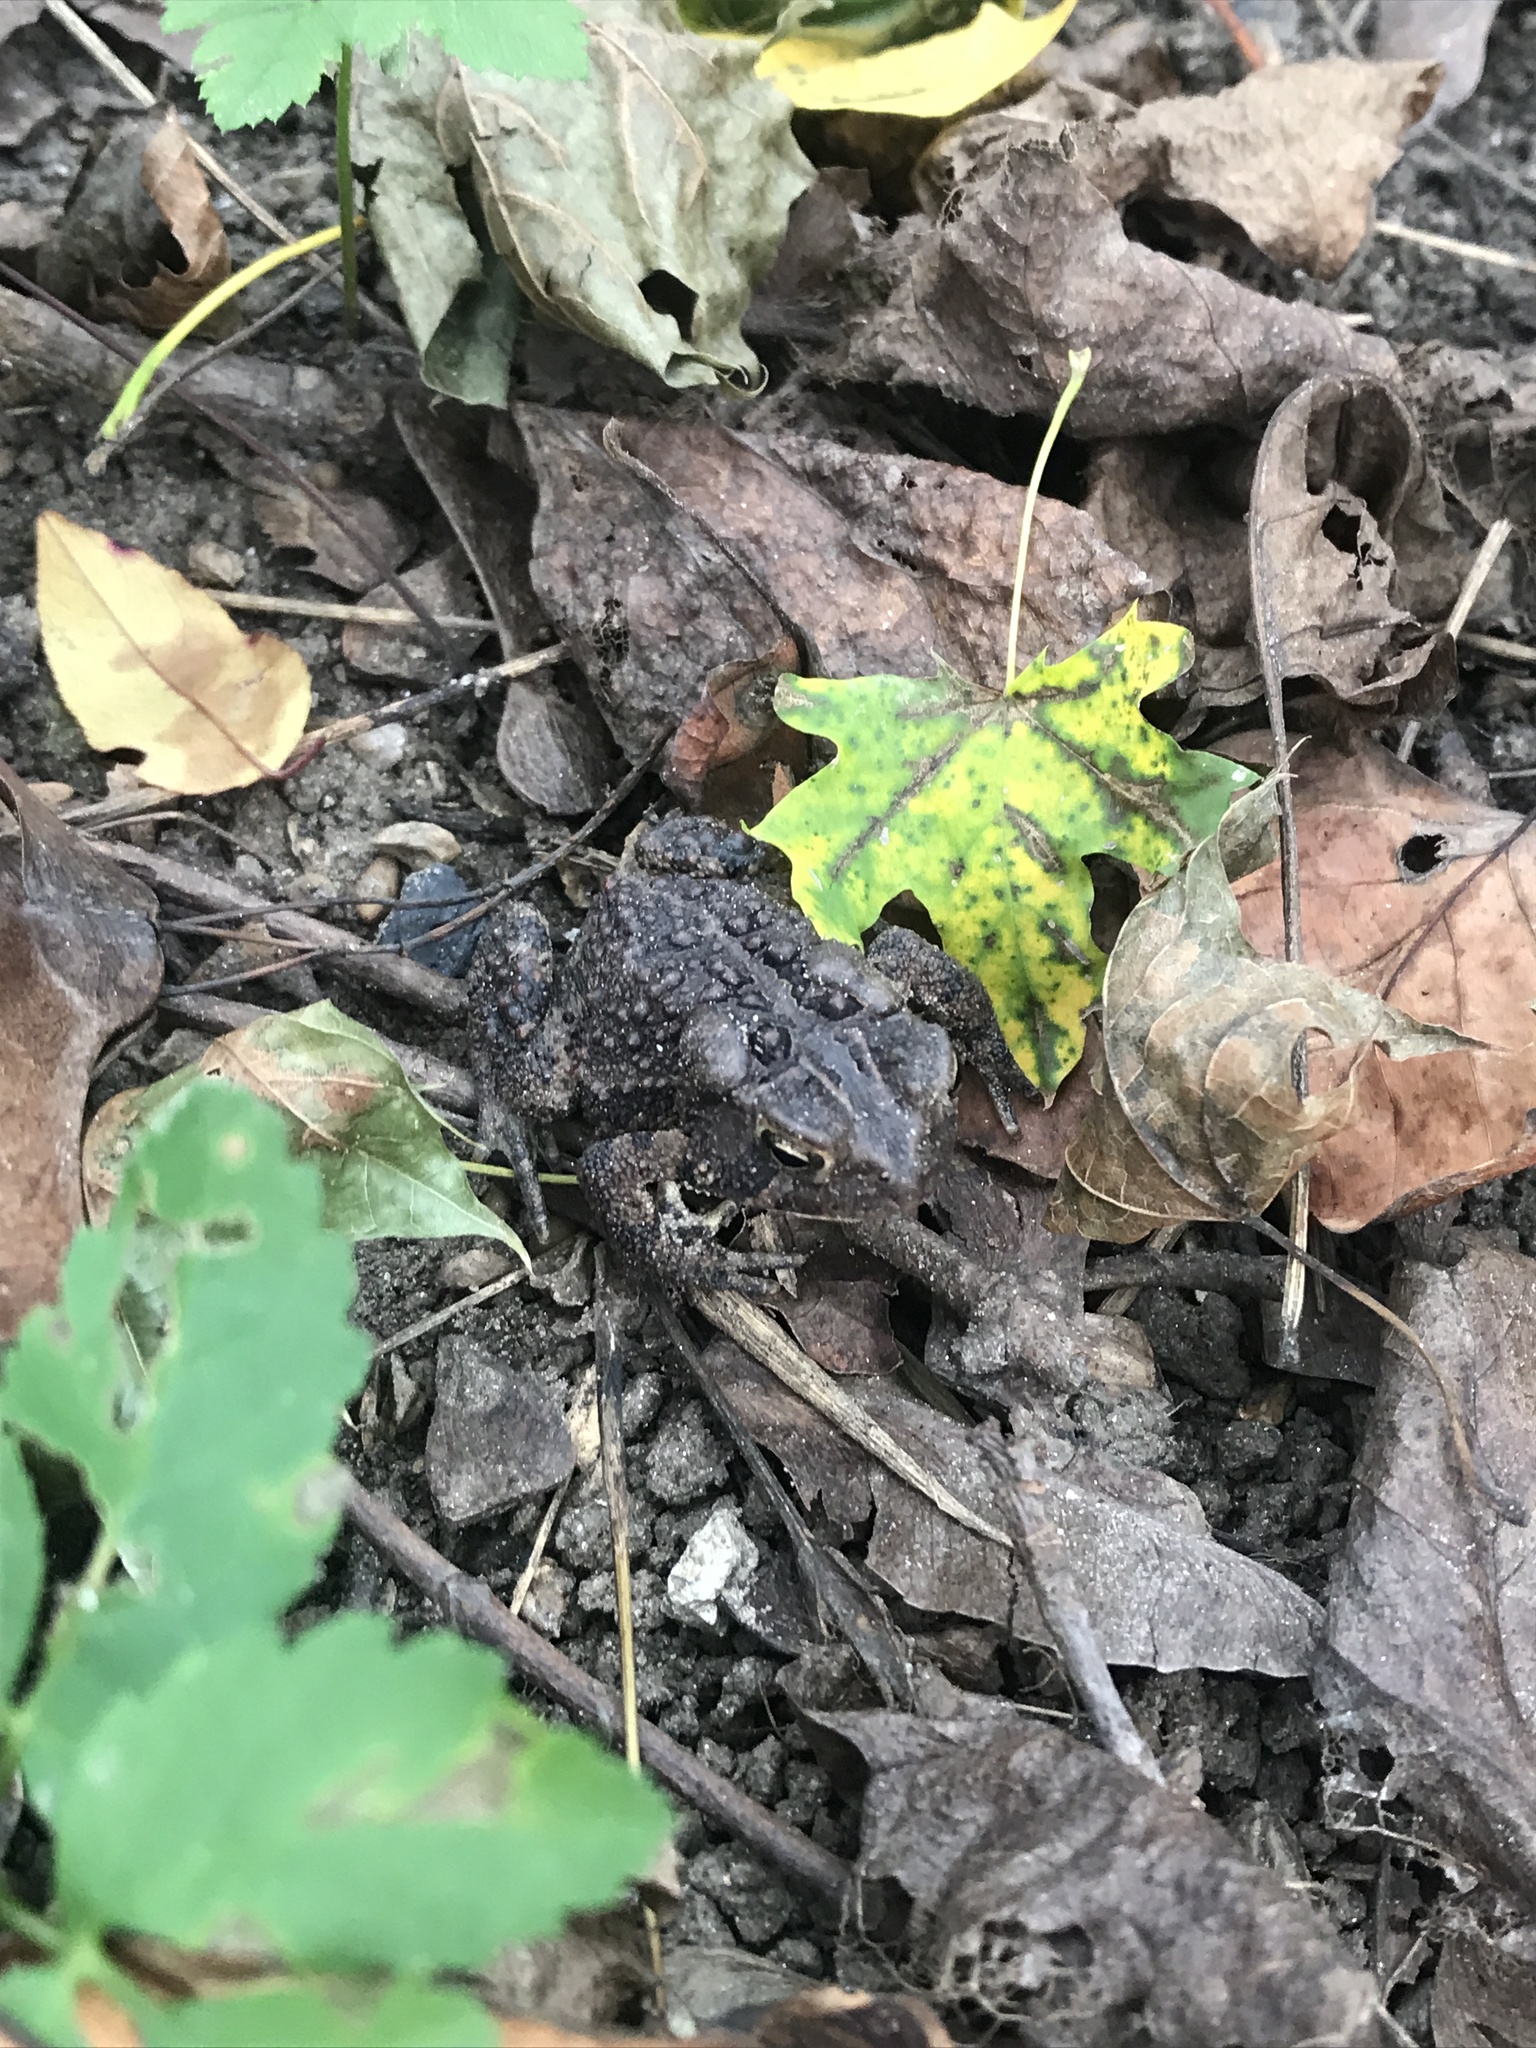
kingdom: Animalia
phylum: Chordata
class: Amphibia
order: Anura
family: Bufonidae
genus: Anaxyrus
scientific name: Anaxyrus americanus
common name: American toad
